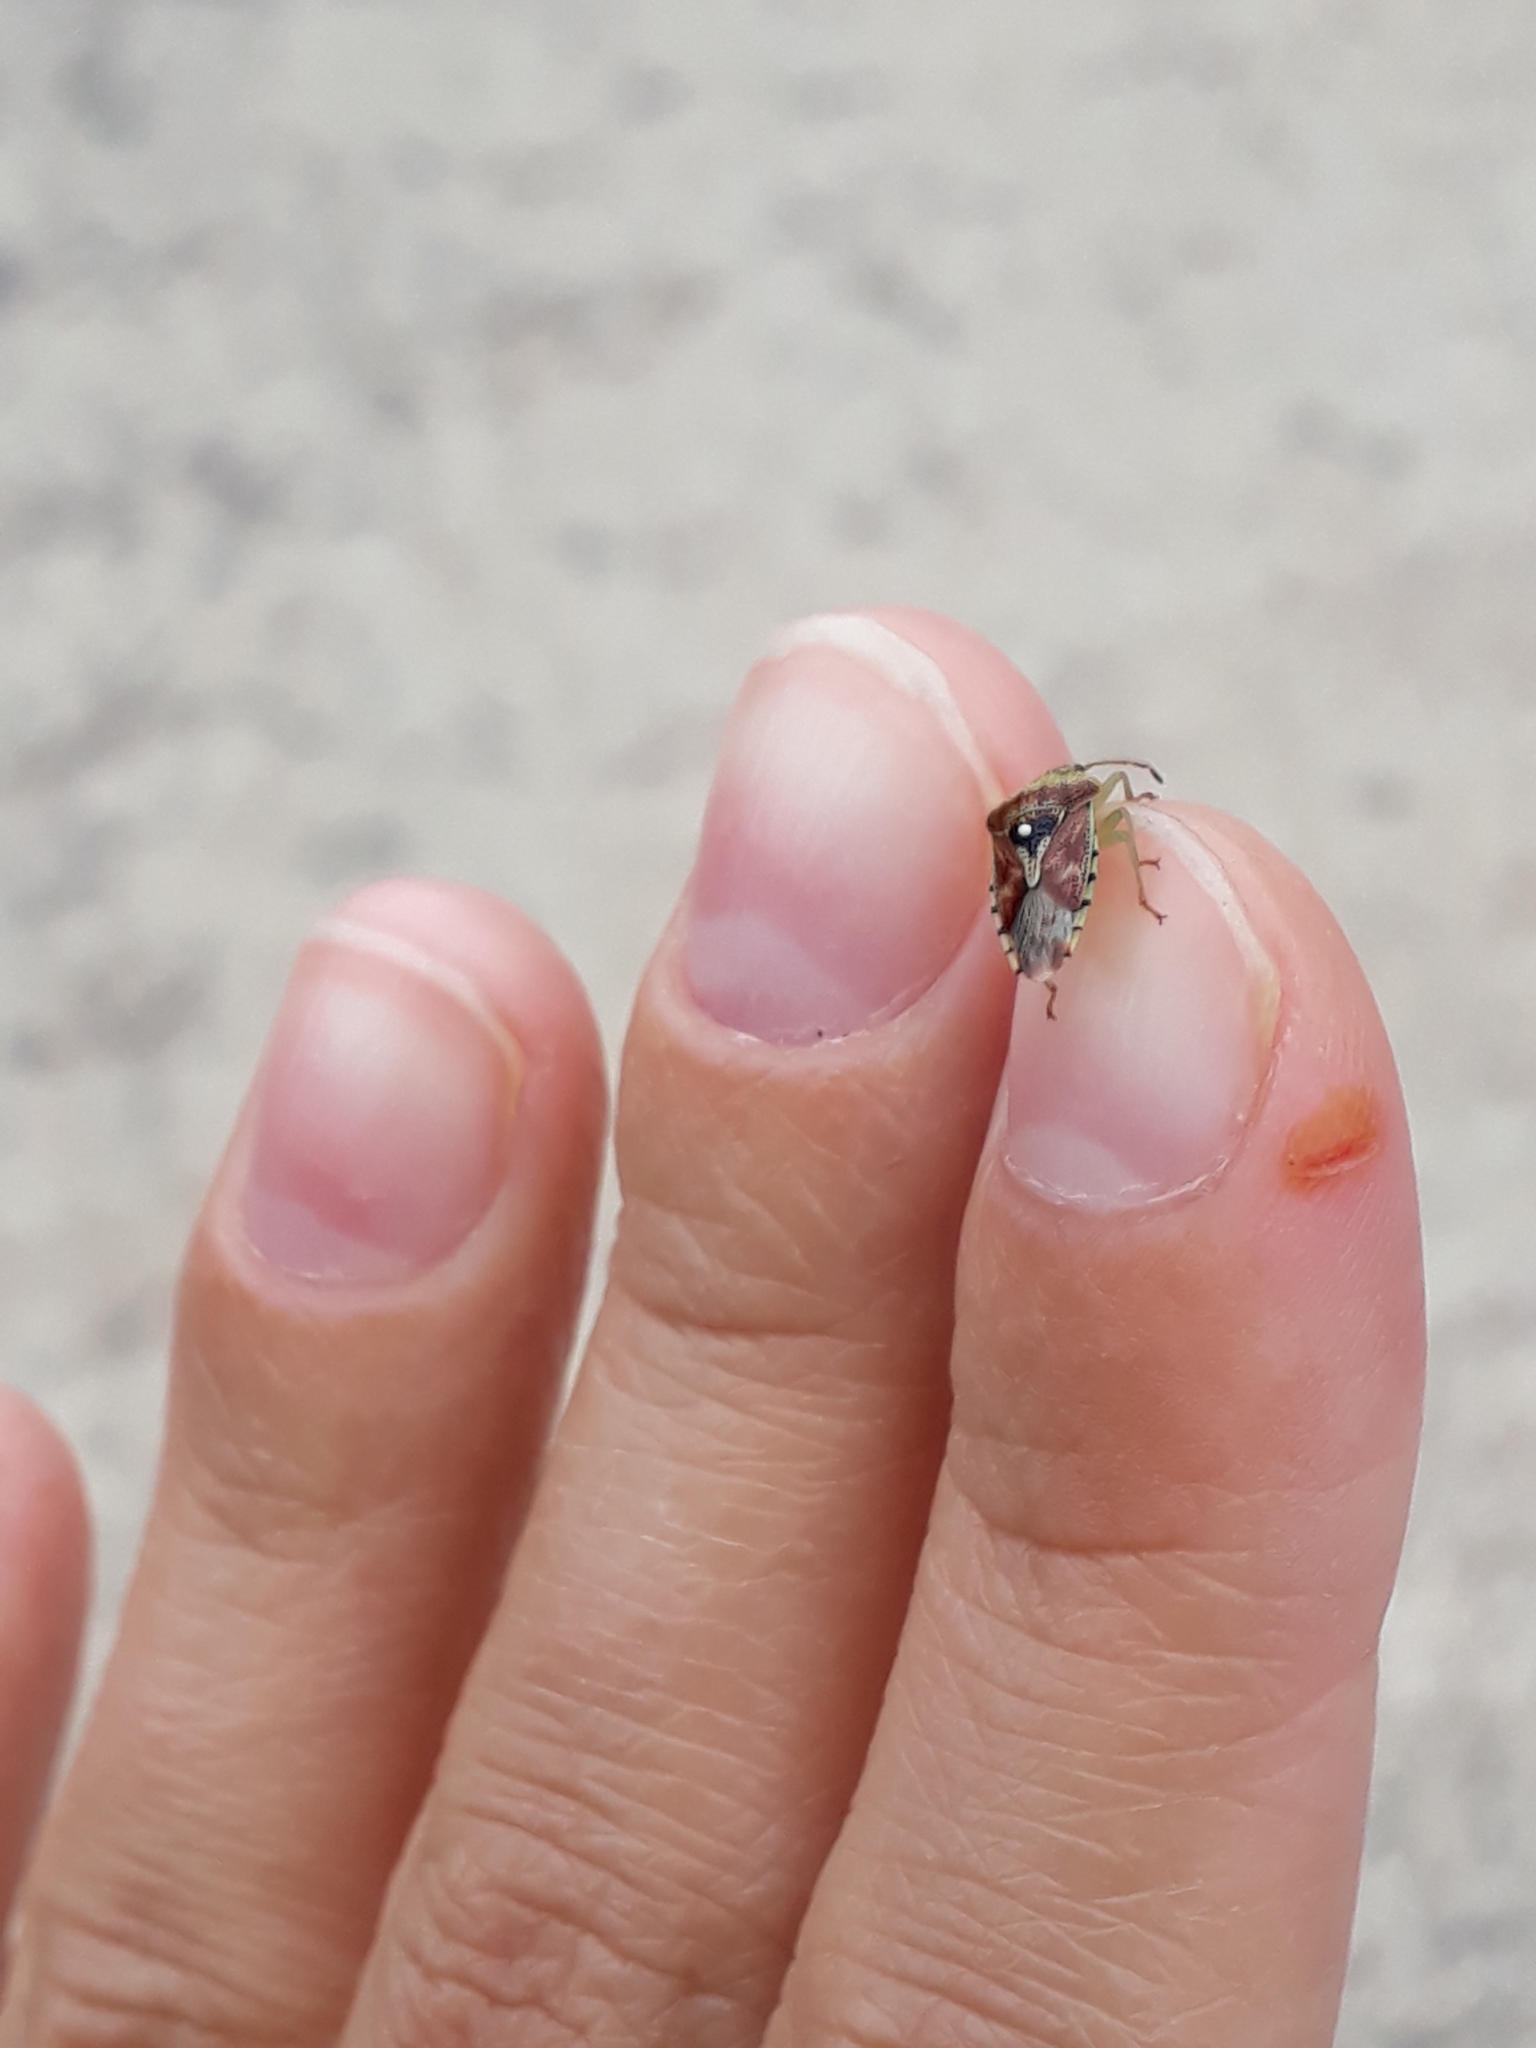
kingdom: Animalia
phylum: Arthropoda
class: Insecta
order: Hemiptera
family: Acanthosomatidae
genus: Elasmucha
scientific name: Elasmucha grisea
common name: Parent bug
